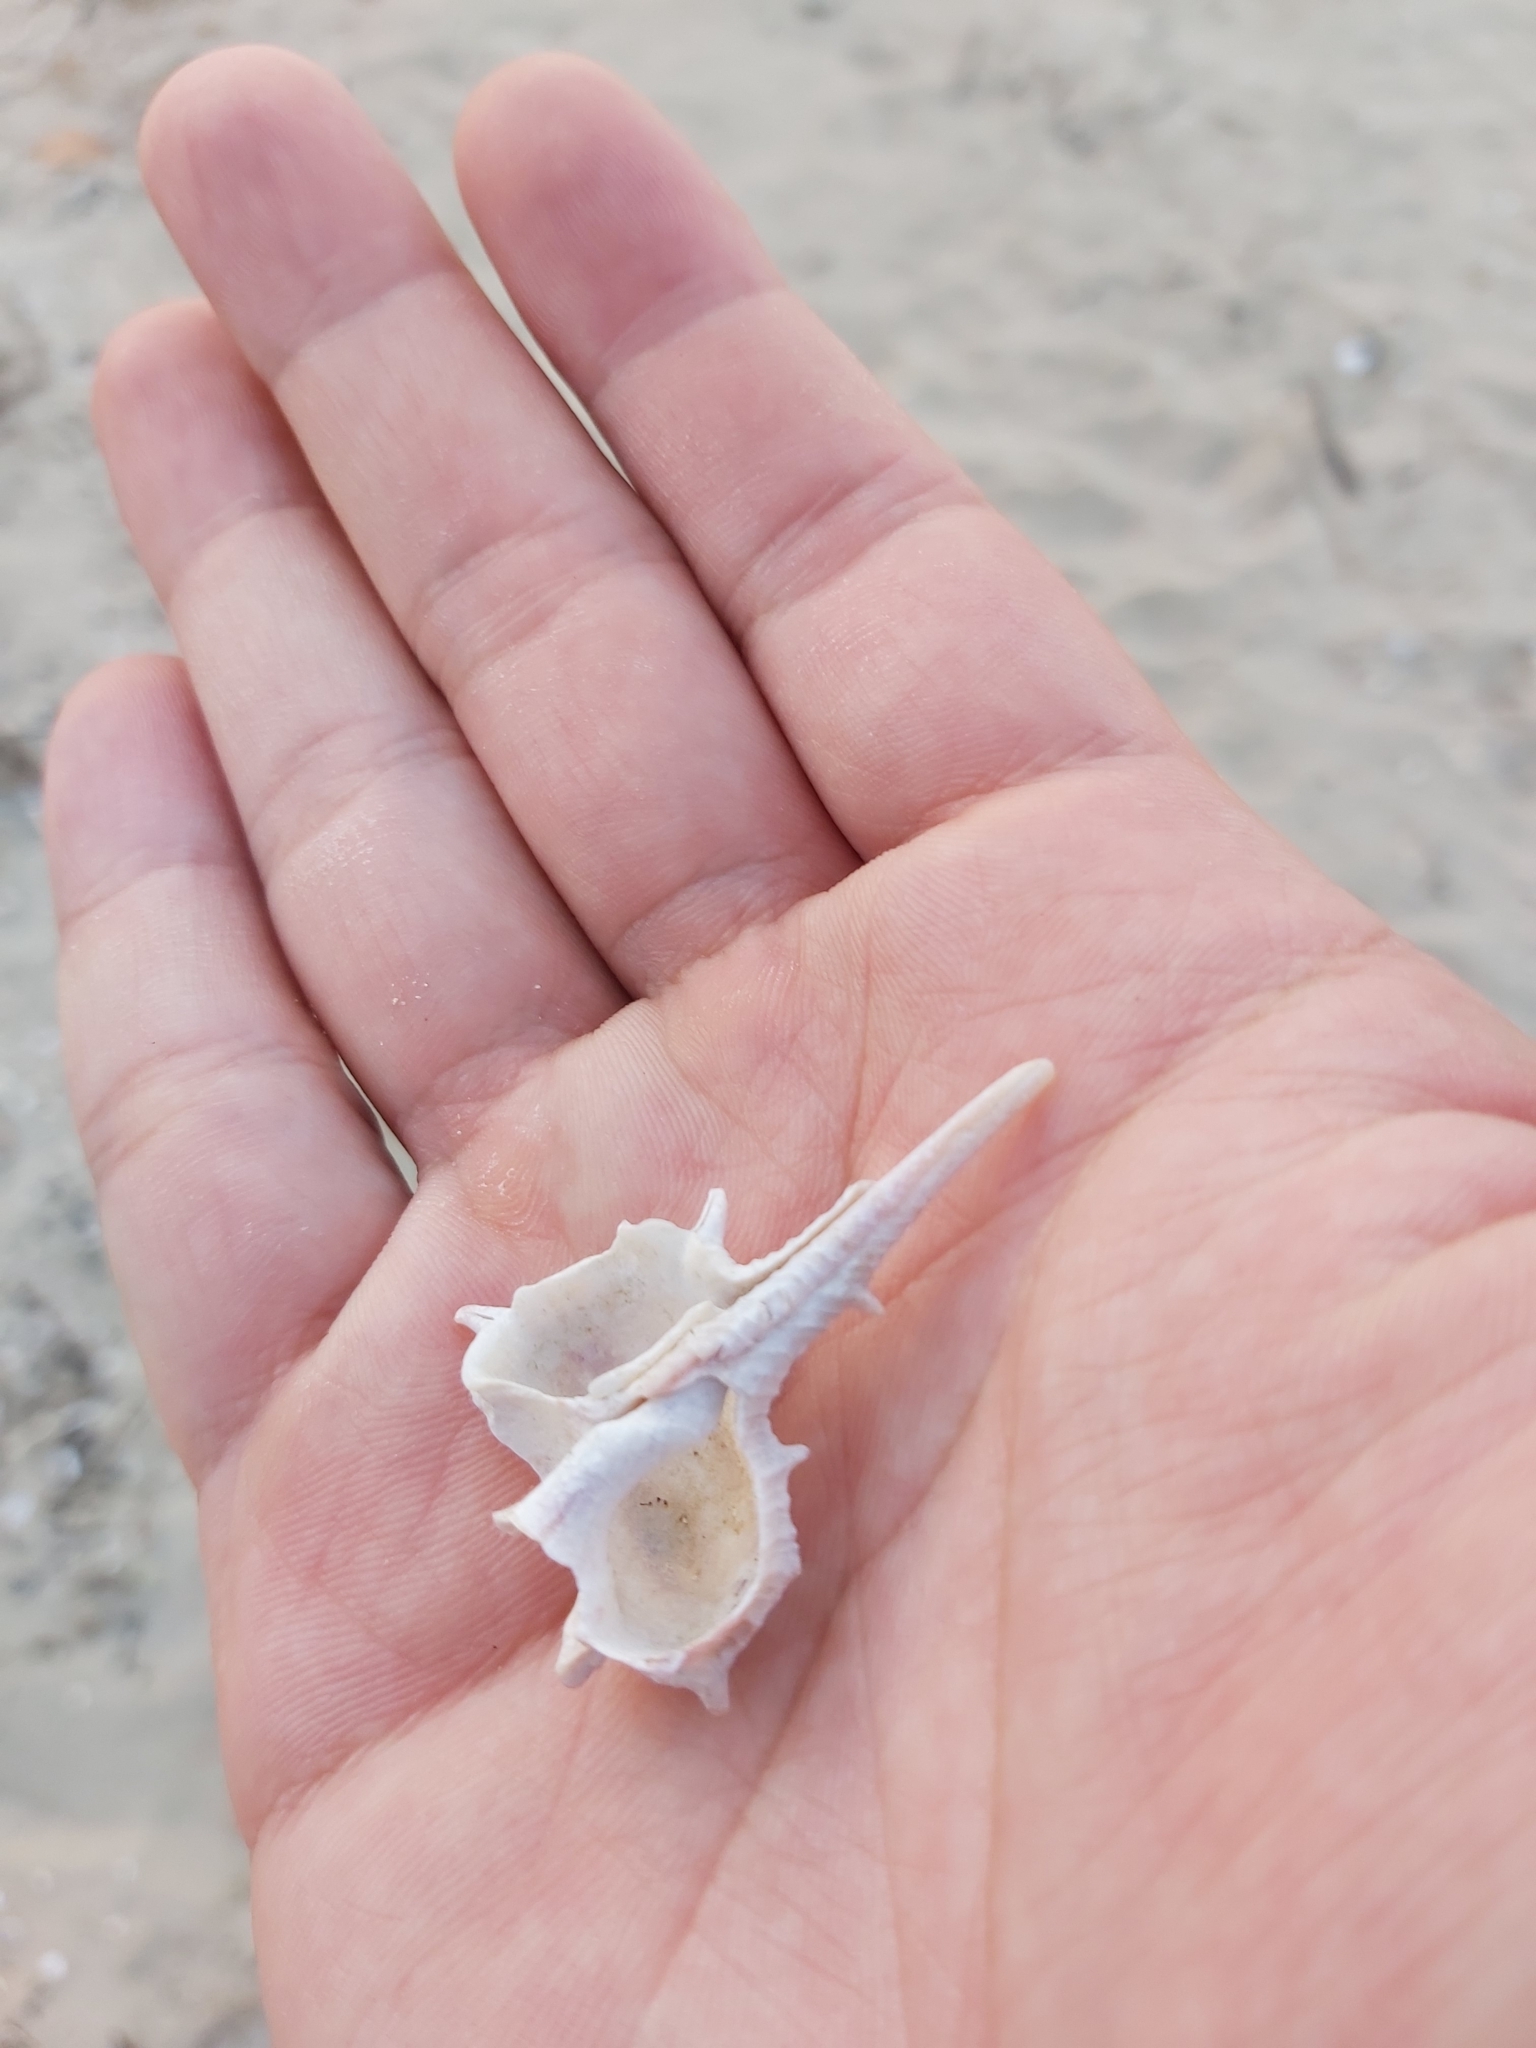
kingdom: Animalia
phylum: Mollusca
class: Gastropoda
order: Neogastropoda
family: Muricidae
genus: Murex
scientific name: Murex brevispina
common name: Brevispined murex
